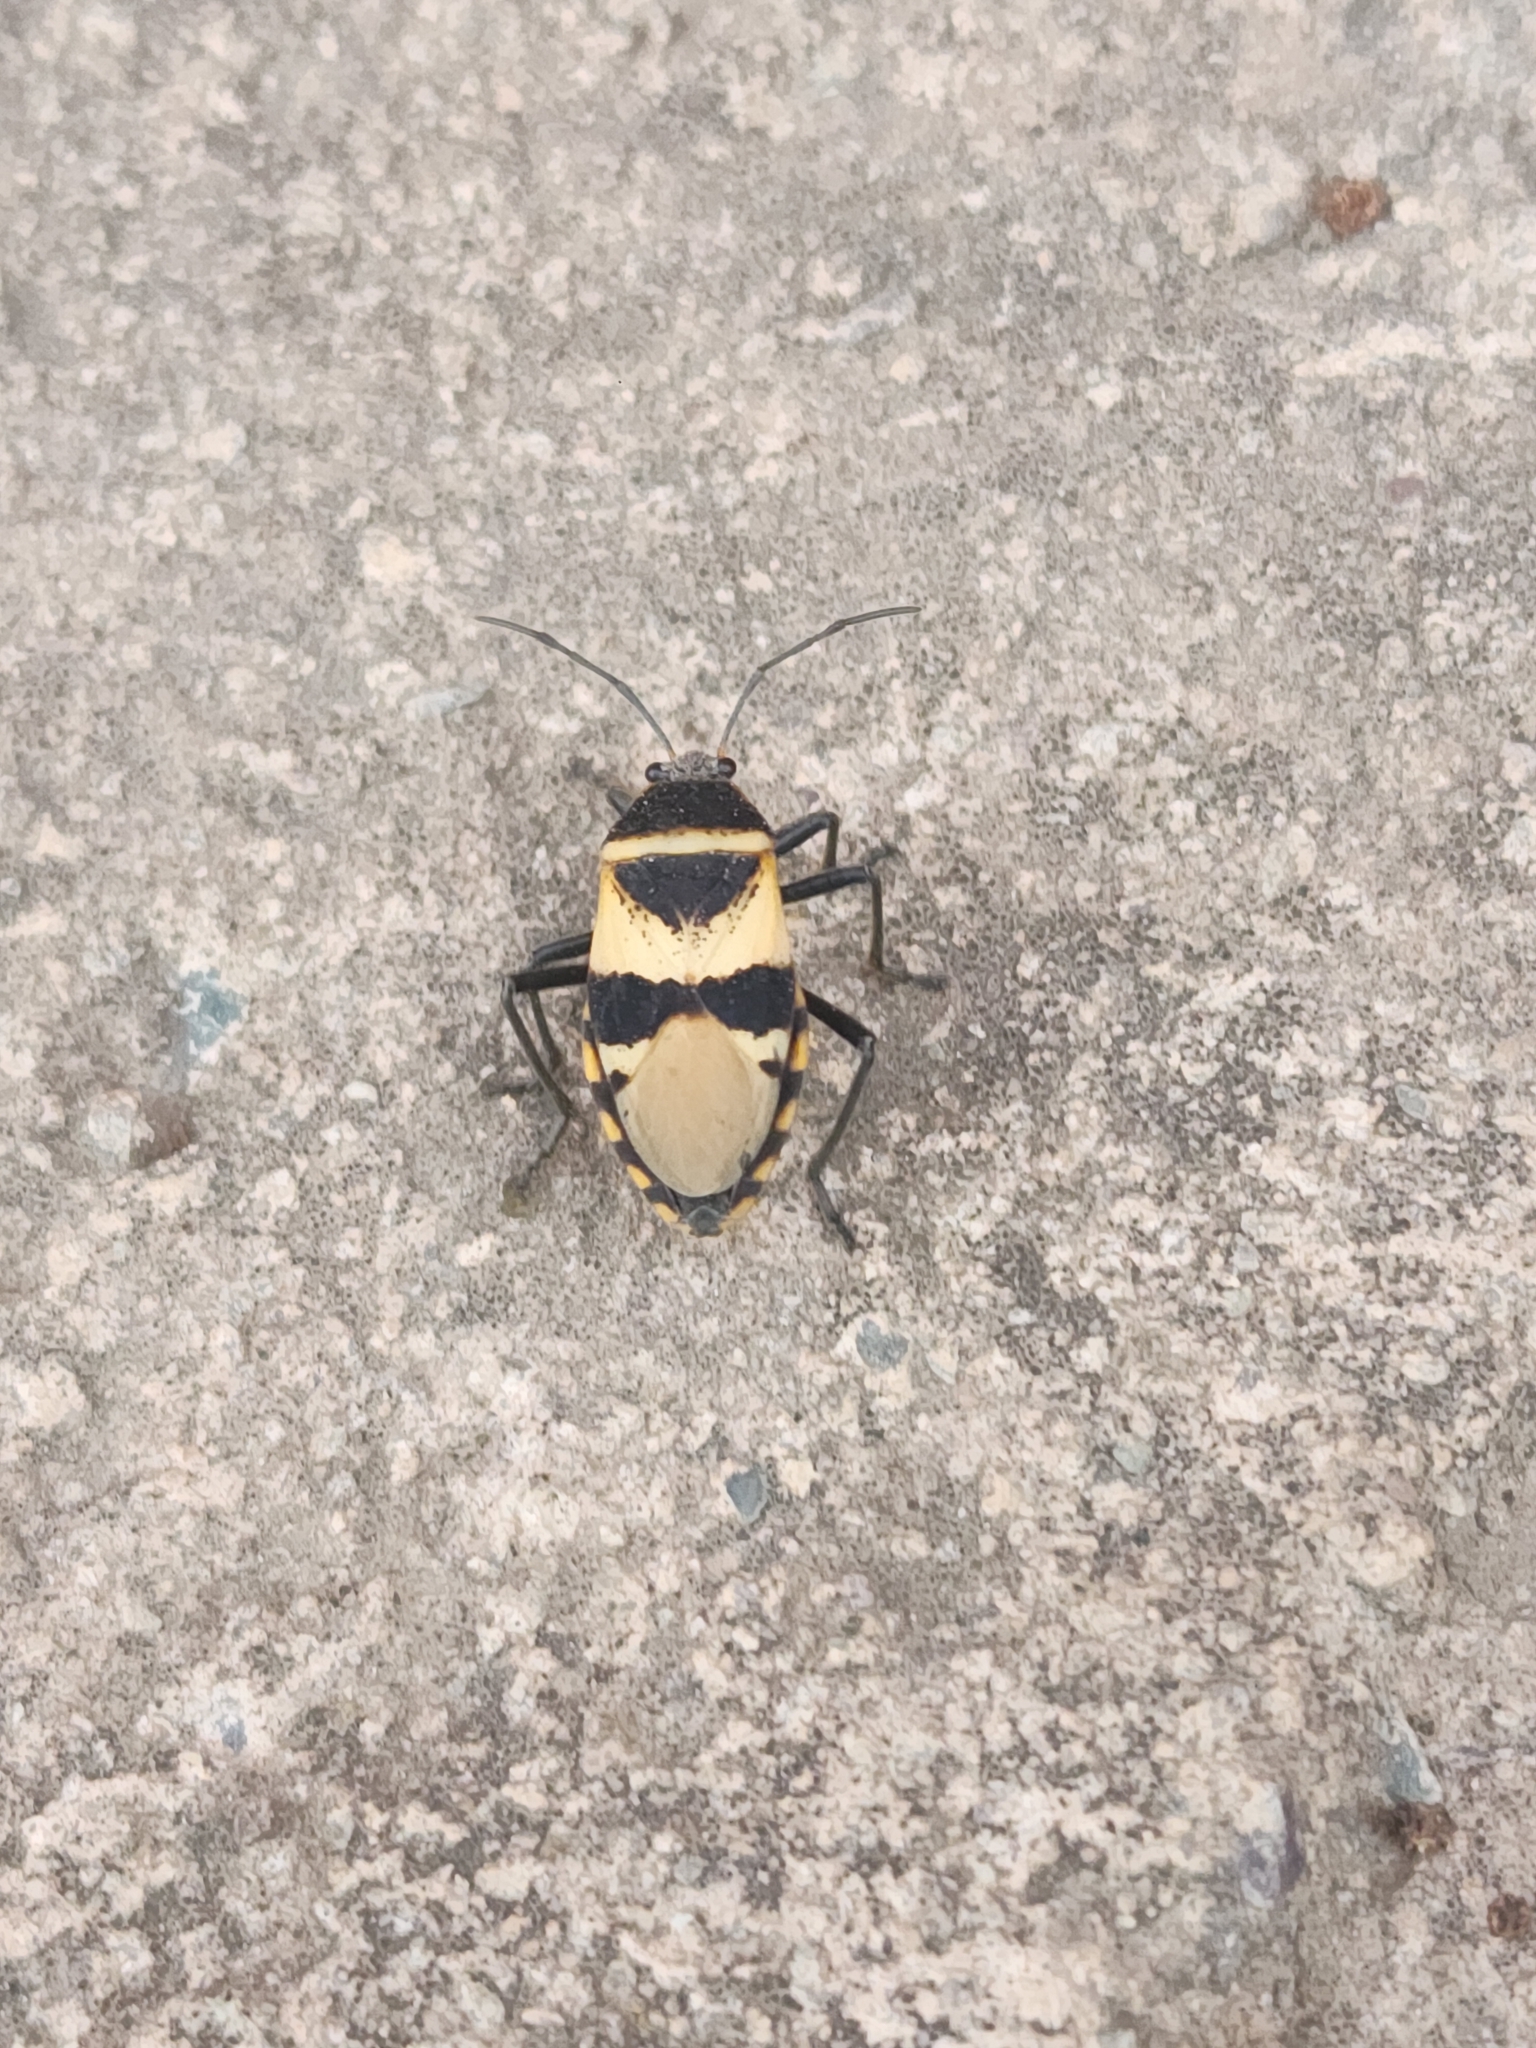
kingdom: Animalia
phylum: Arthropoda
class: Insecta
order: Hemiptera
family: Largidae
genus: Largus
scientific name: Largus fasciatus
